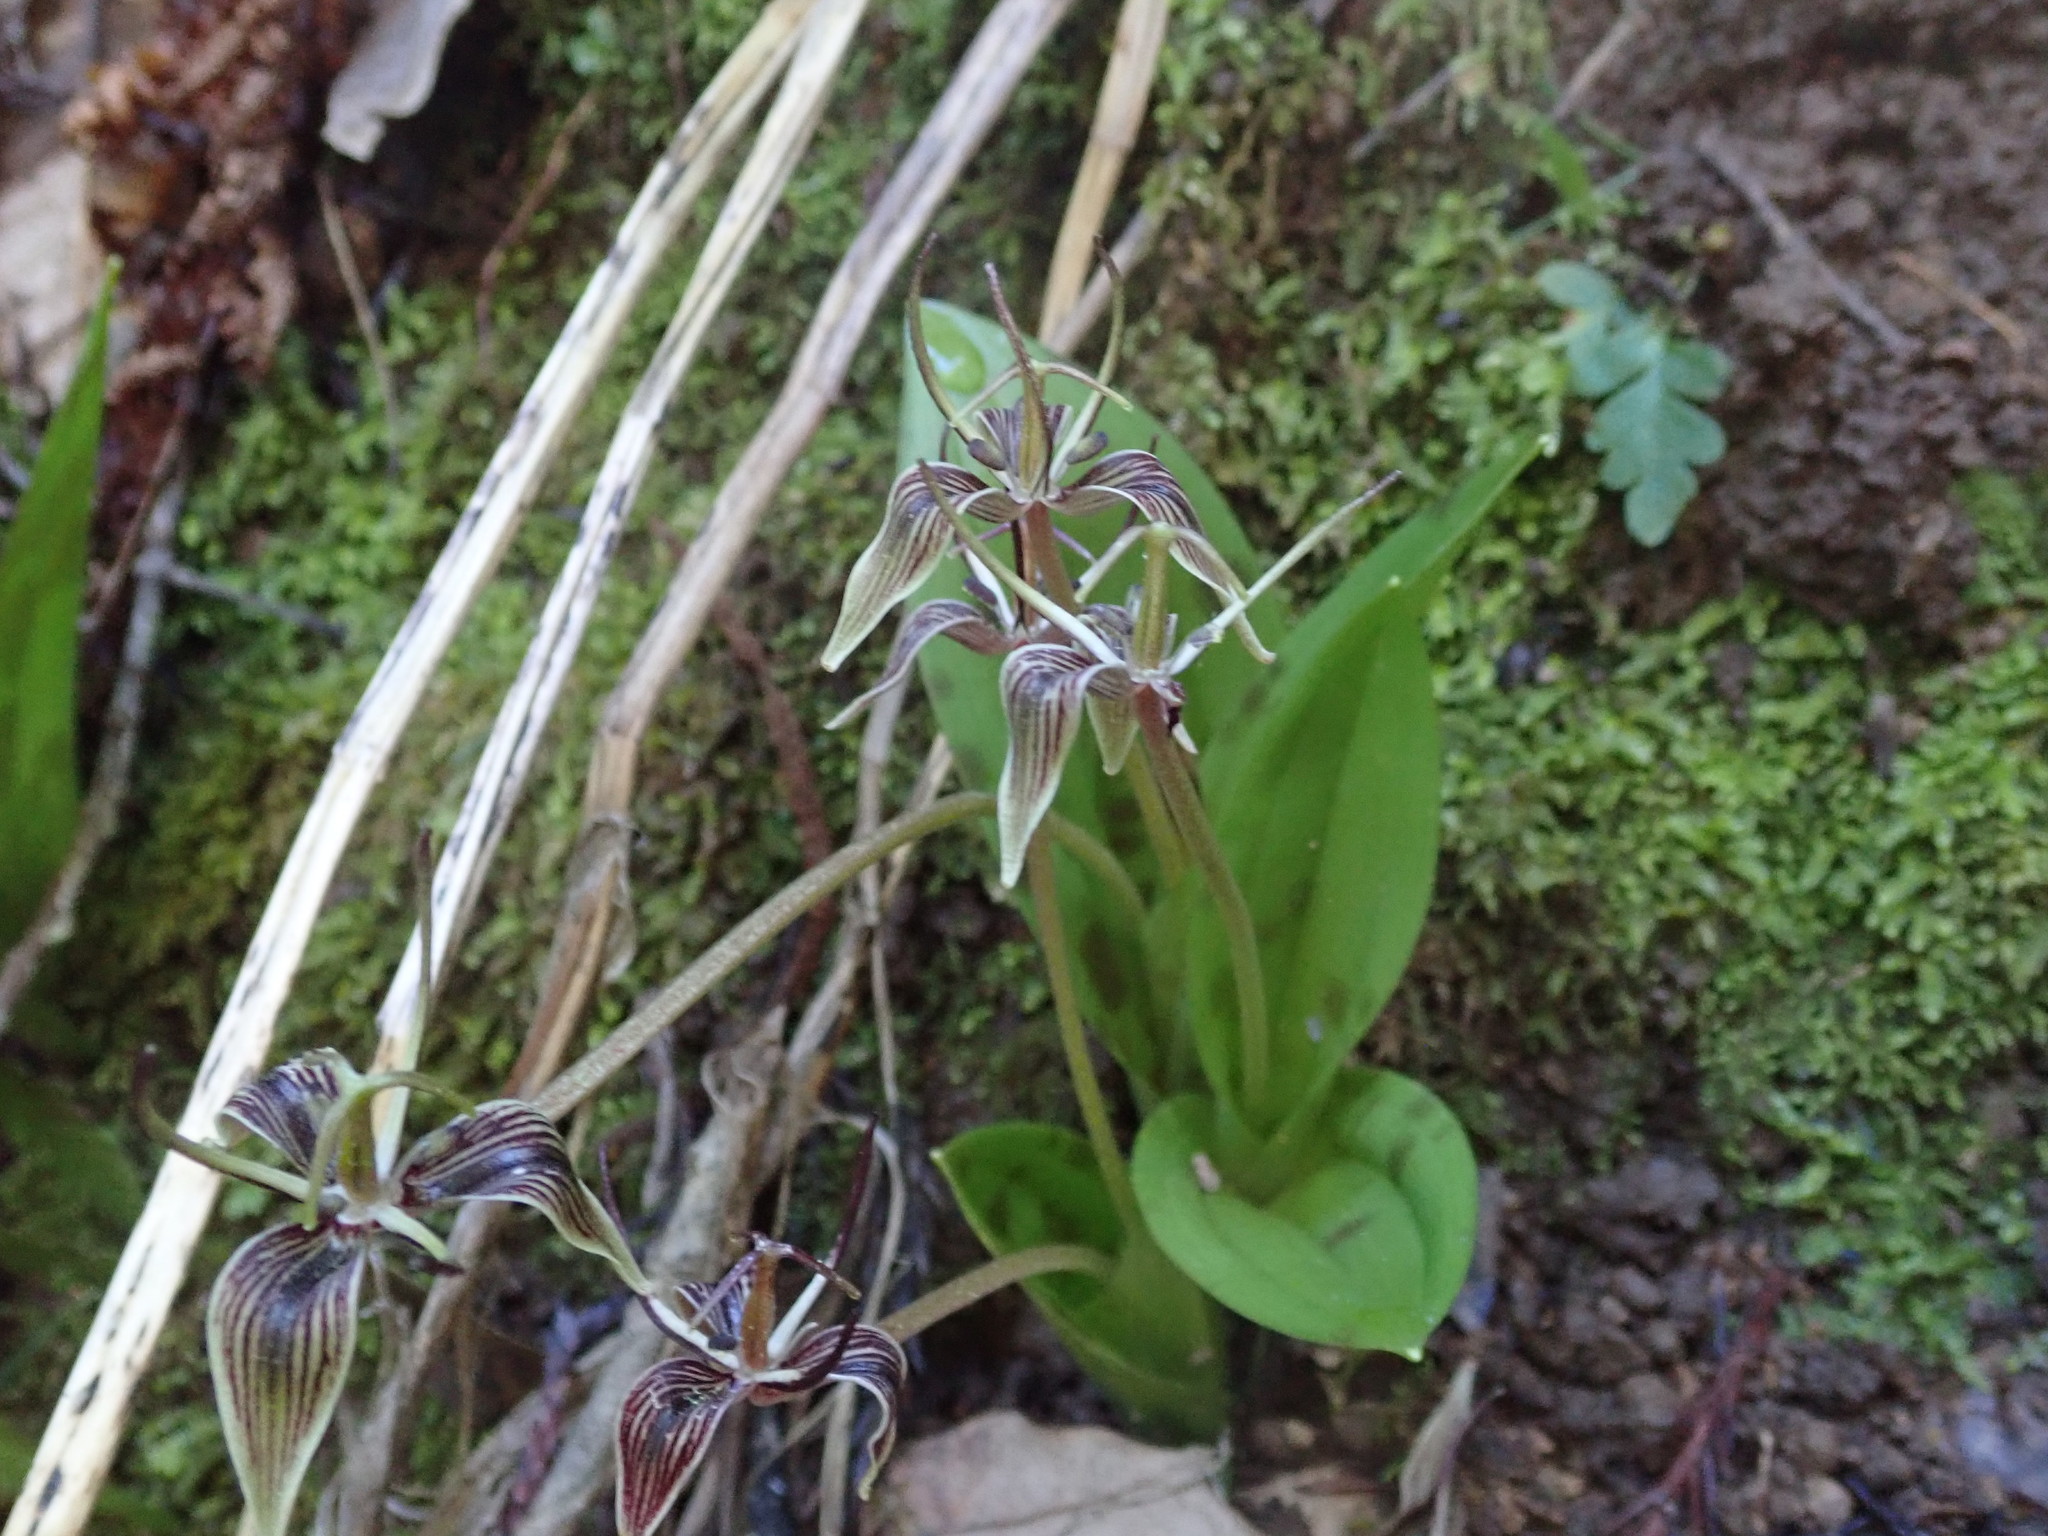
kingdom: Plantae
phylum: Tracheophyta
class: Liliopsida
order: Liliales
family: Liliaceae
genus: Scoliopus
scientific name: Scoliopus bigelovii
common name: Foetid adder's-tongue
